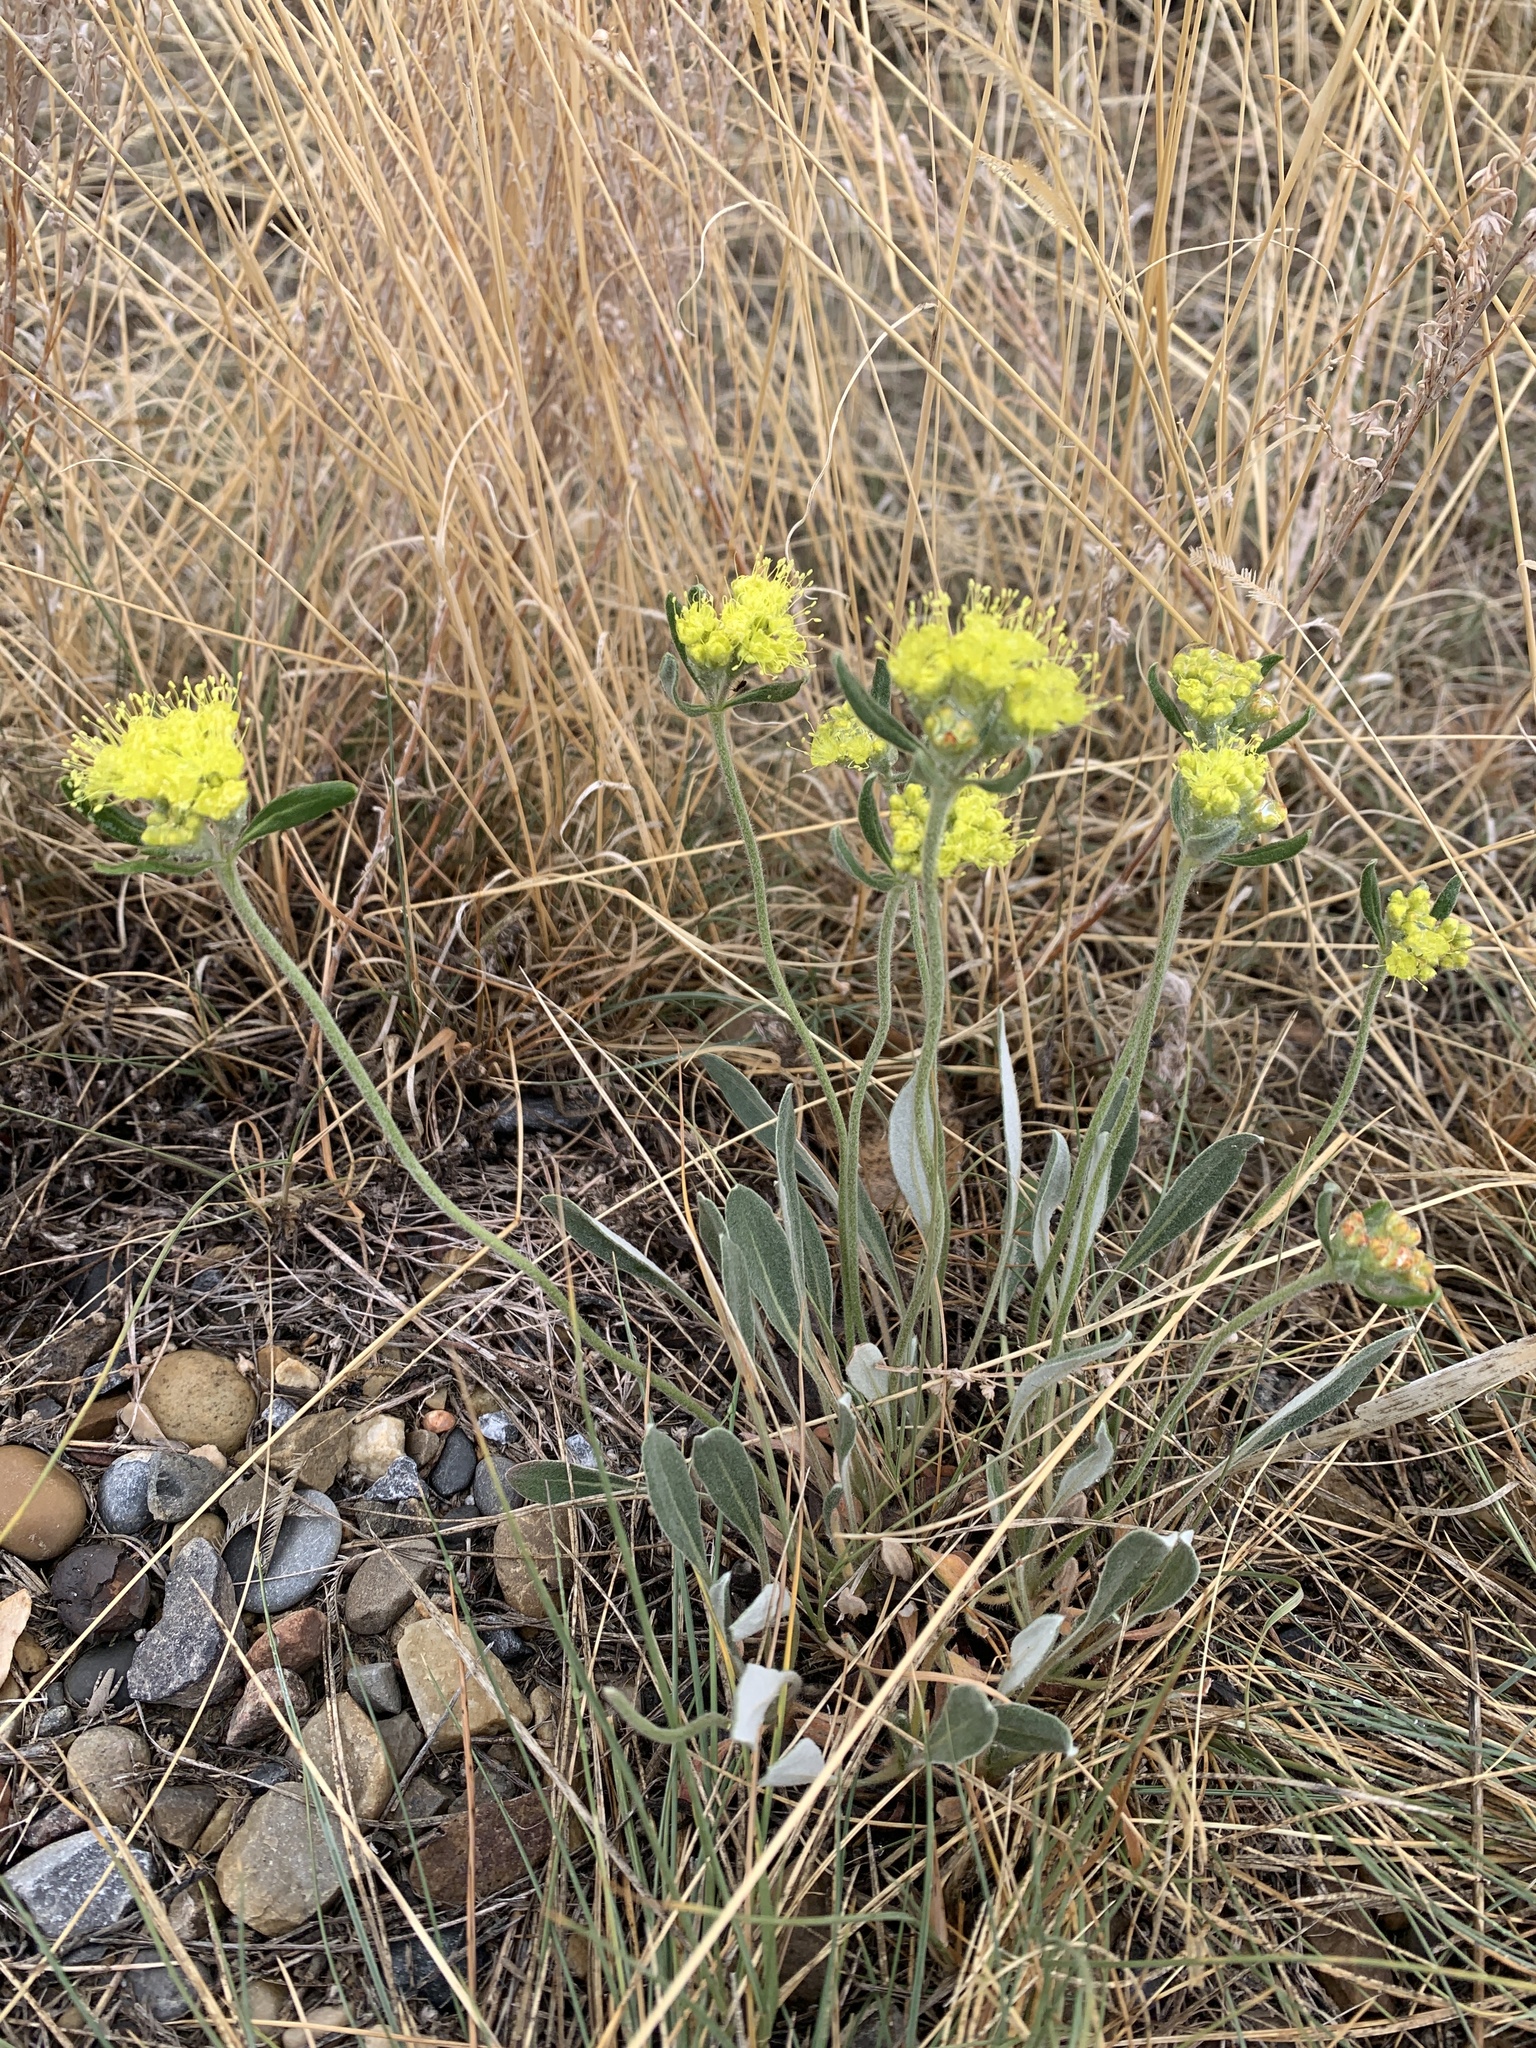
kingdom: Plantae
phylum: Tracheophyta
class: Magnoliopsida
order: Caryophyllales
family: Polygonaceae
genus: Eriogonum
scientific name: Eriogonum flavum
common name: Alpine golden wild buckwheat
